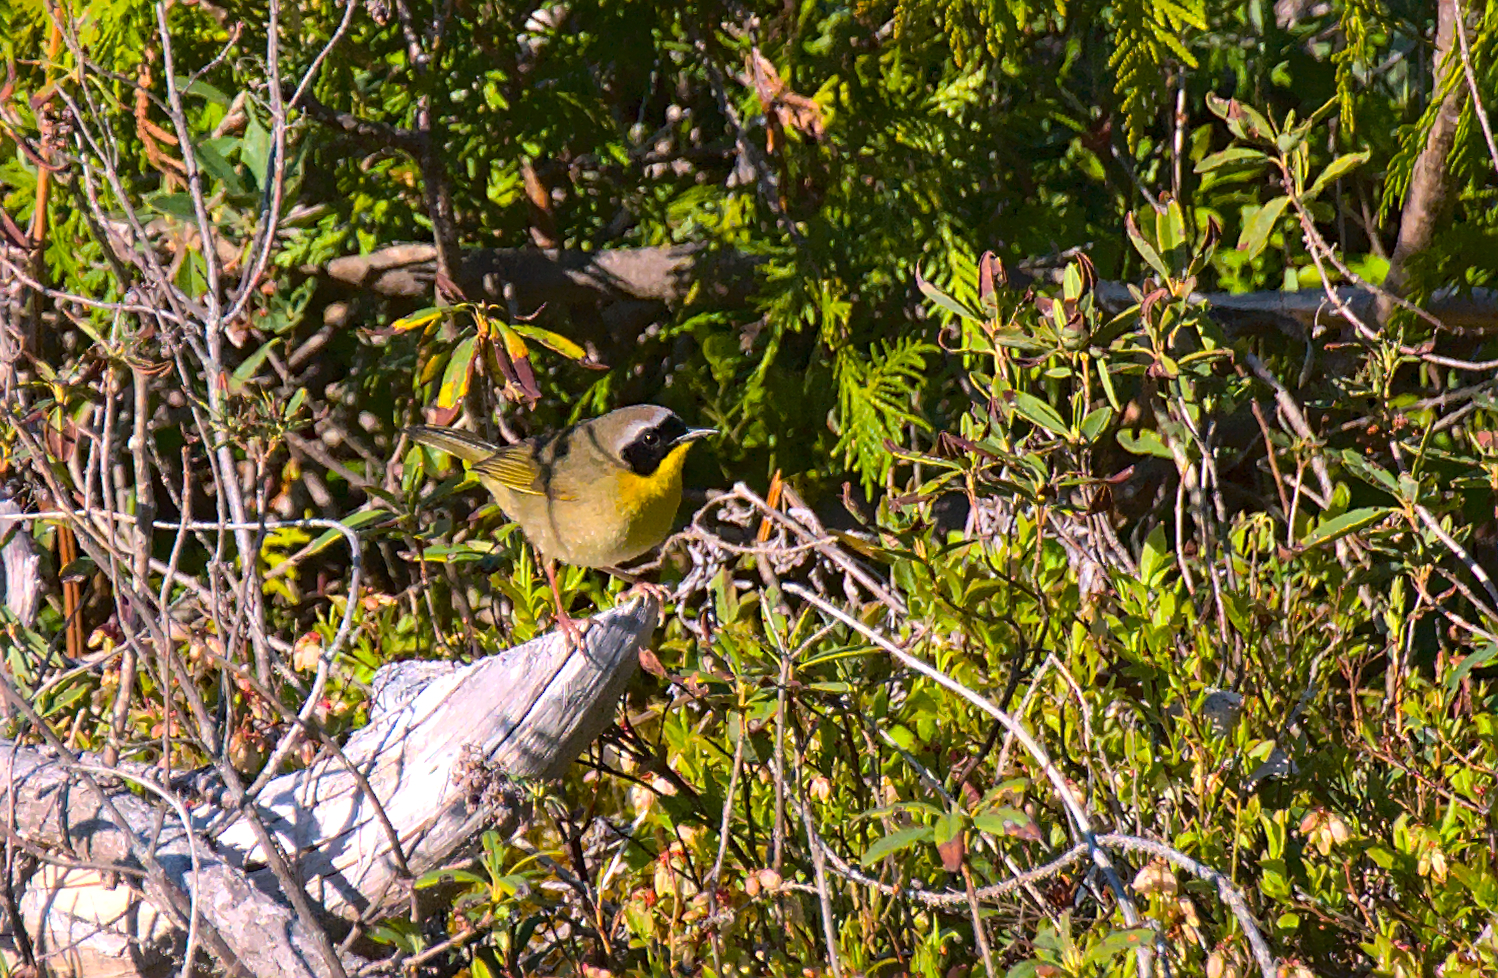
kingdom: Animalia
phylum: Chordata
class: Aves
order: Passeriformes
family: Parulidae
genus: Geothlypis
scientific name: Geothlypis trichas
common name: Common yellowthroat
